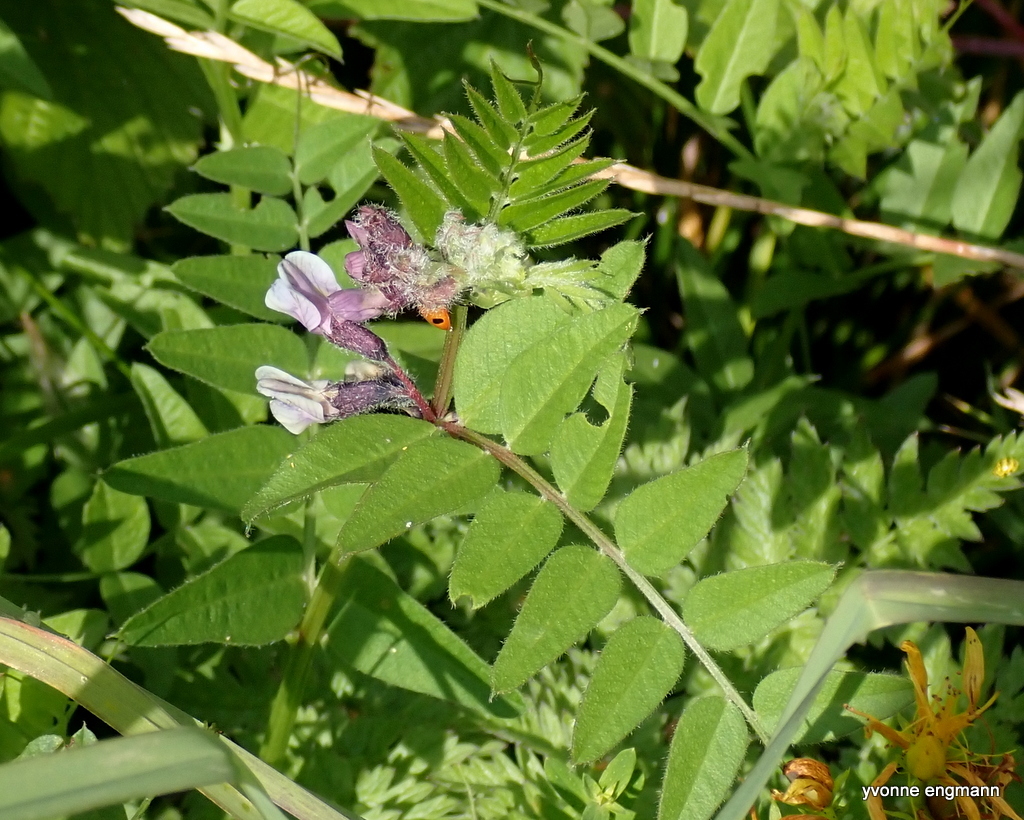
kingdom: Plantae
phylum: Tracheophyta
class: Magnoliopsida
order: Fabales
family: Fabaceae
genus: Vicia
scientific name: Vicia sepium
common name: Bush vetch
